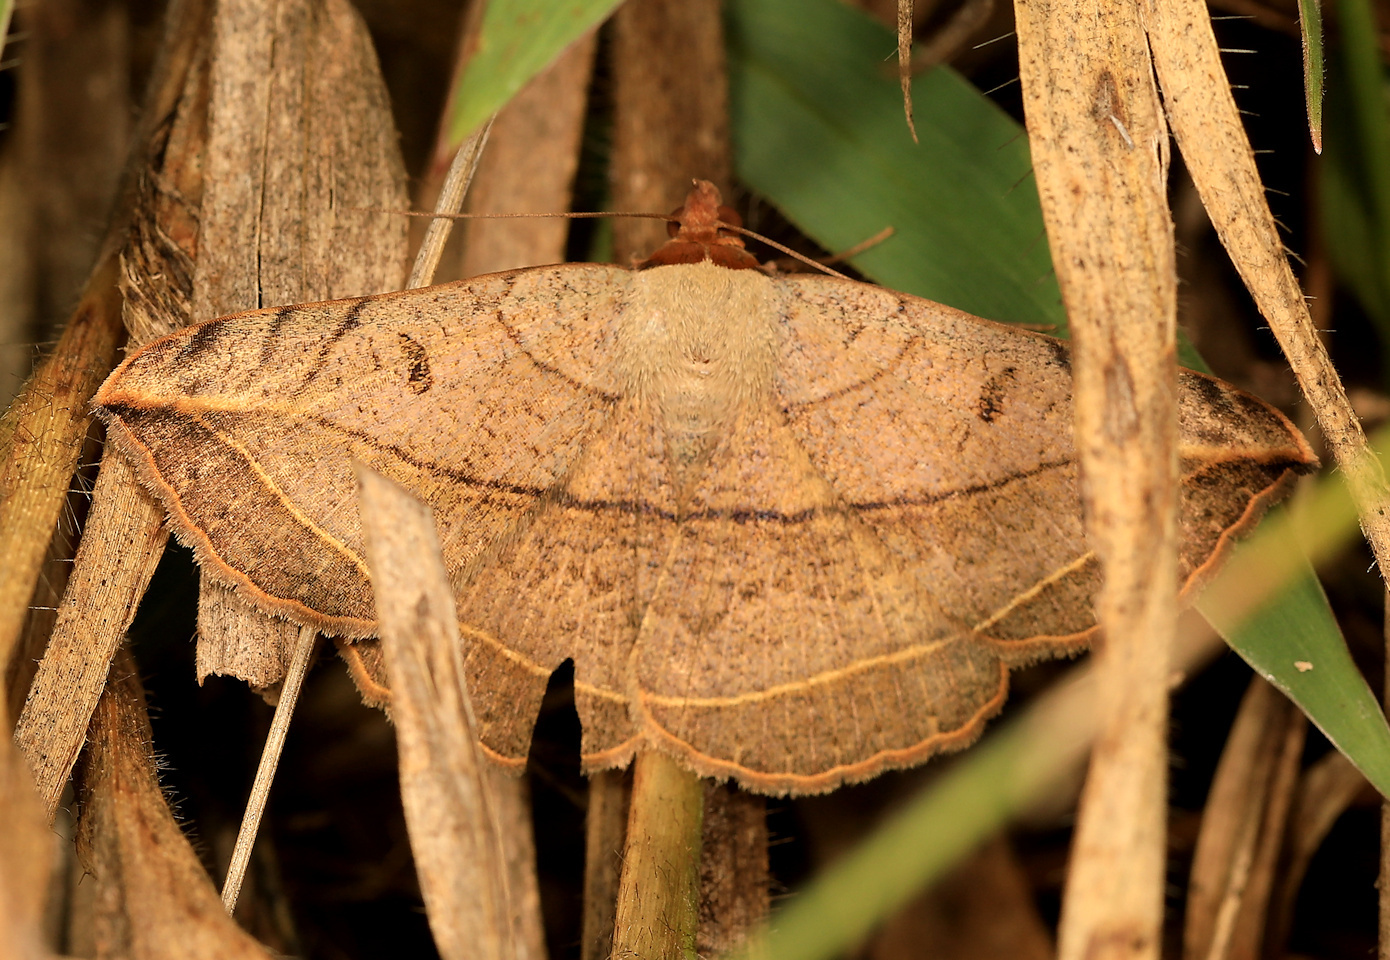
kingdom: Animalia
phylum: Arthropoda
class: Insecta
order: Lepidoptera
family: Erebidae
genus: Entomogramma
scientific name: Entomogramma pardus
